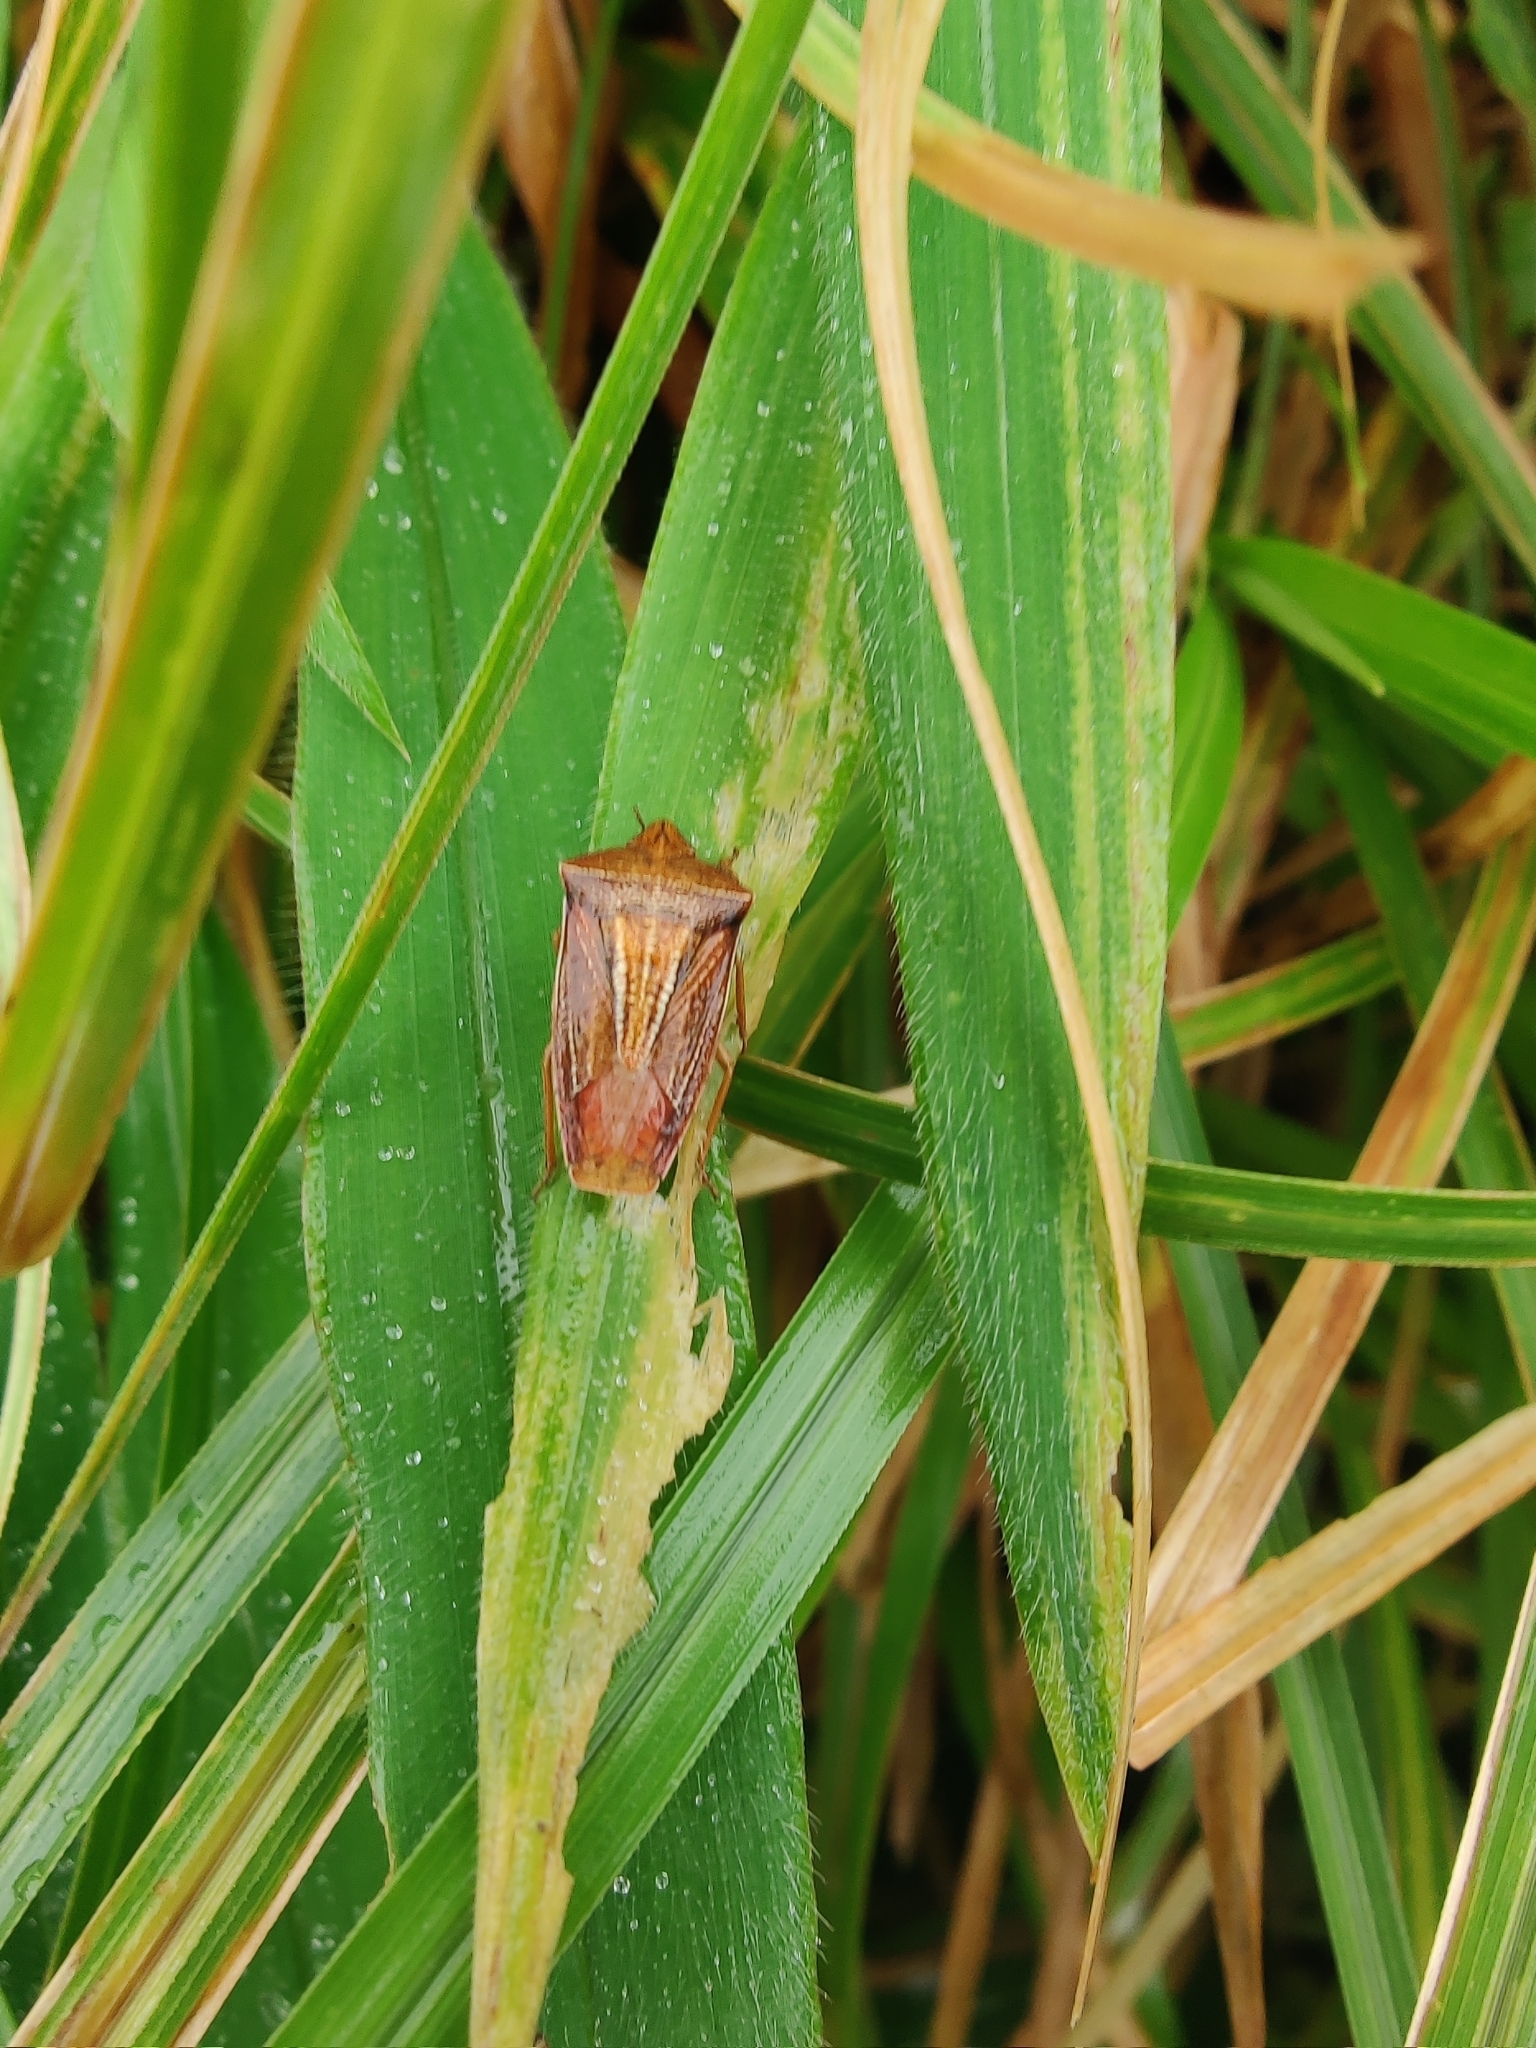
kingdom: Animalia
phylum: Arthropoda
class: Insecta
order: Hemiptera
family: Pentatomidae
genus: Gonopsis
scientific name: Gonopsis rubescens
